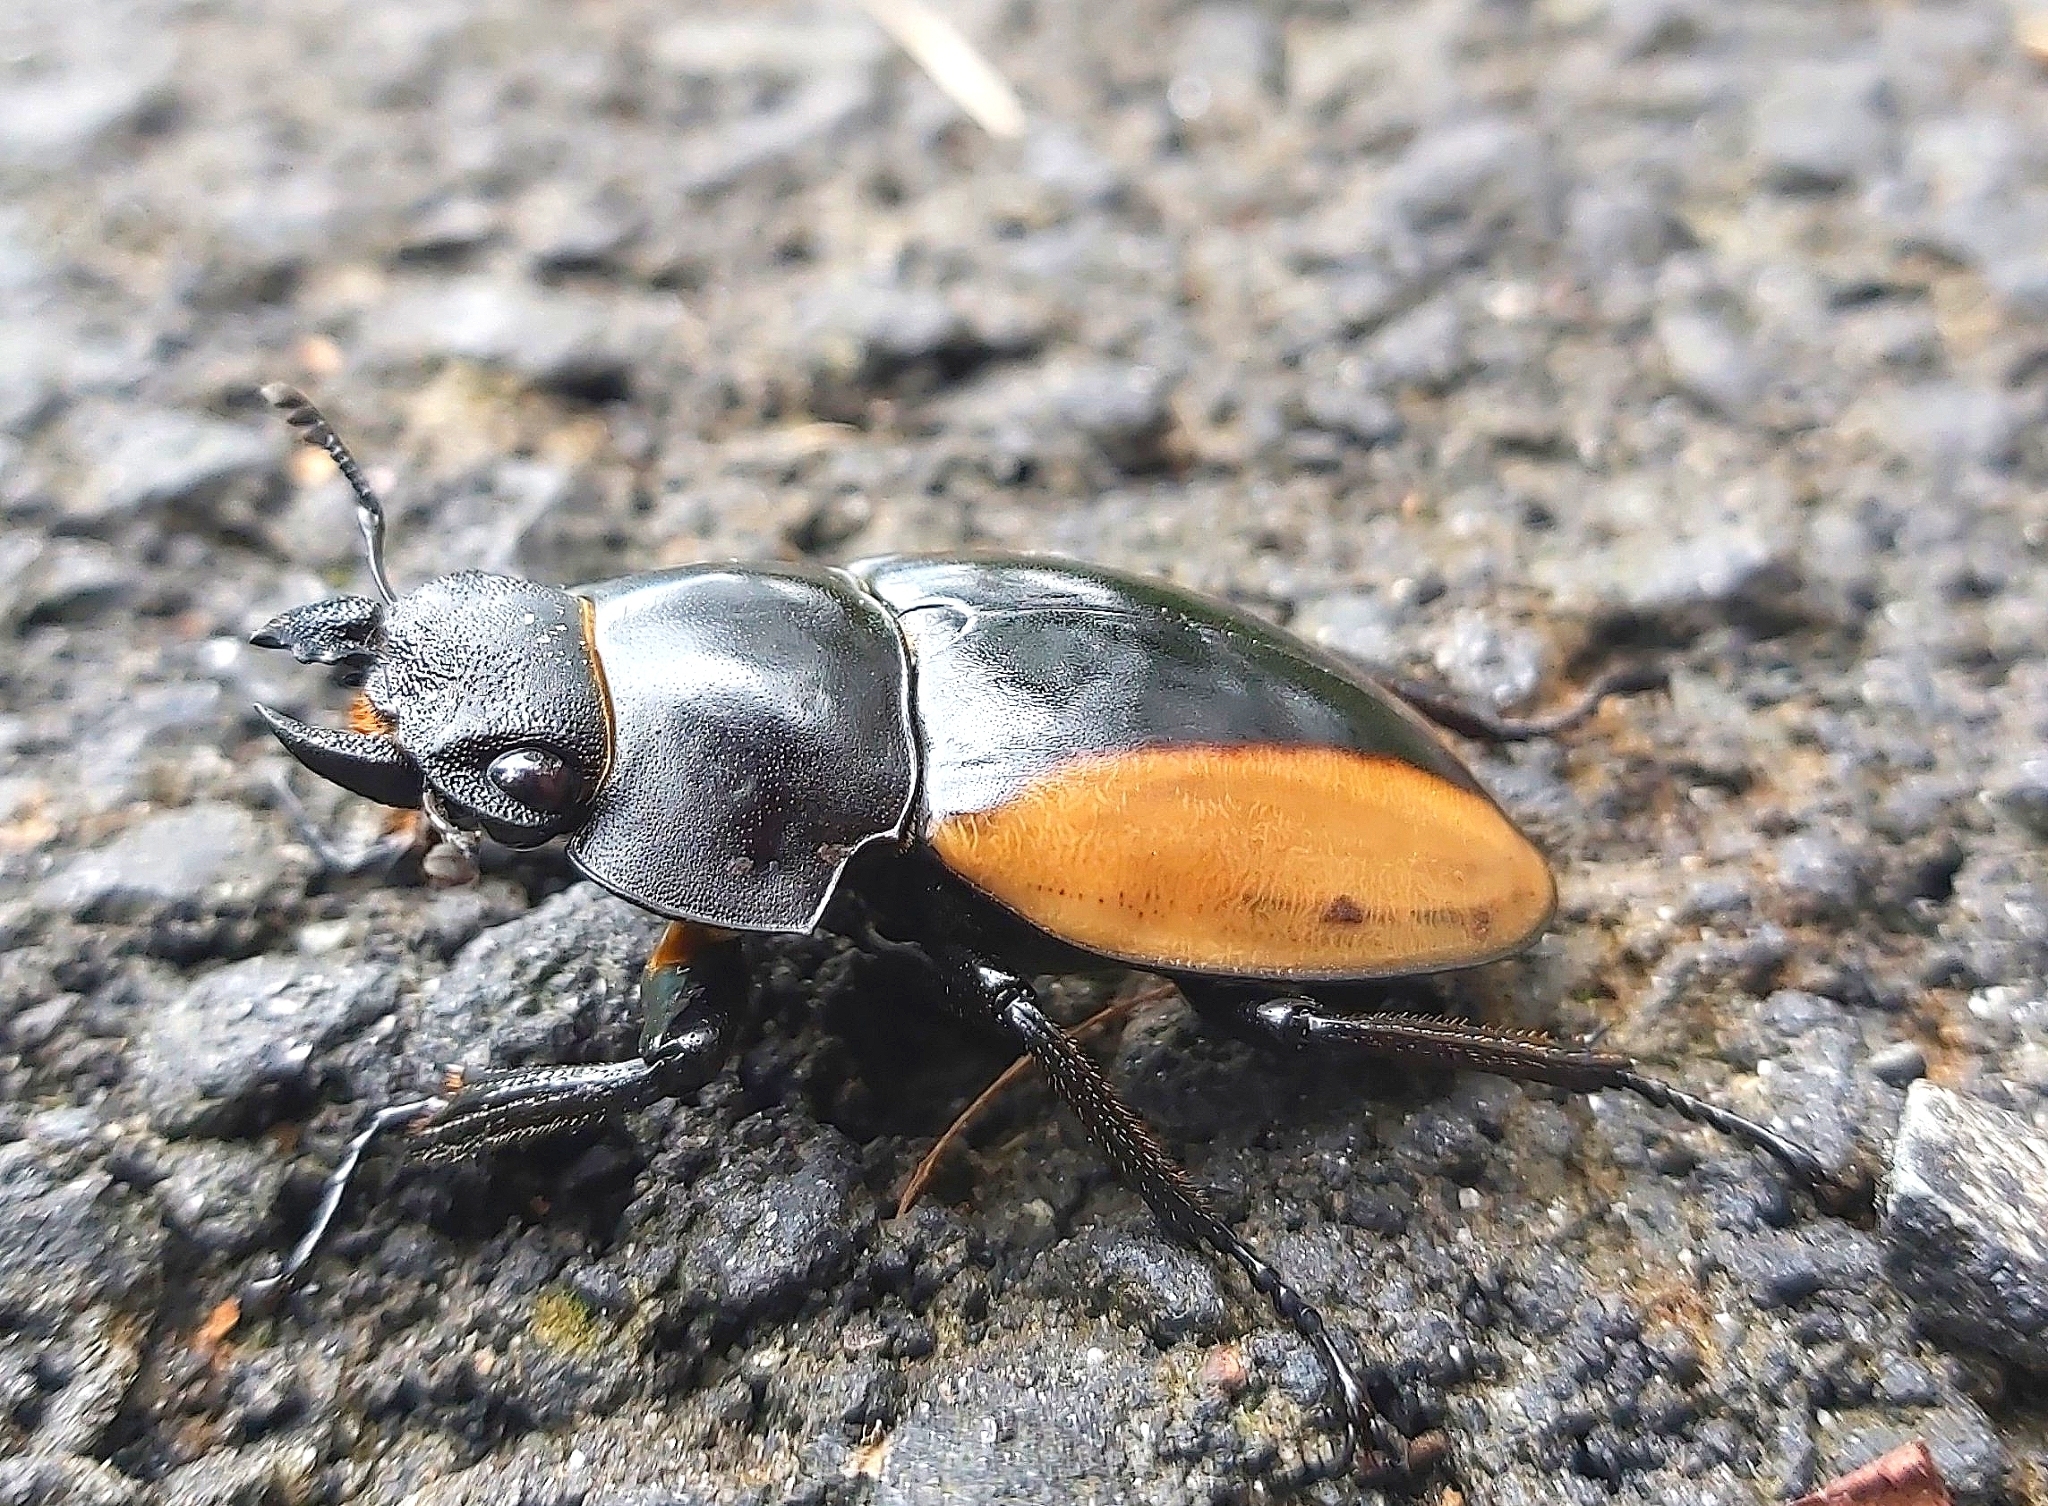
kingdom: Animalia
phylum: Arthropoda
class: Insecta
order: Coleoptera
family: Lucanidae
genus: Odontolabis
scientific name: Odontolabis cuvera
